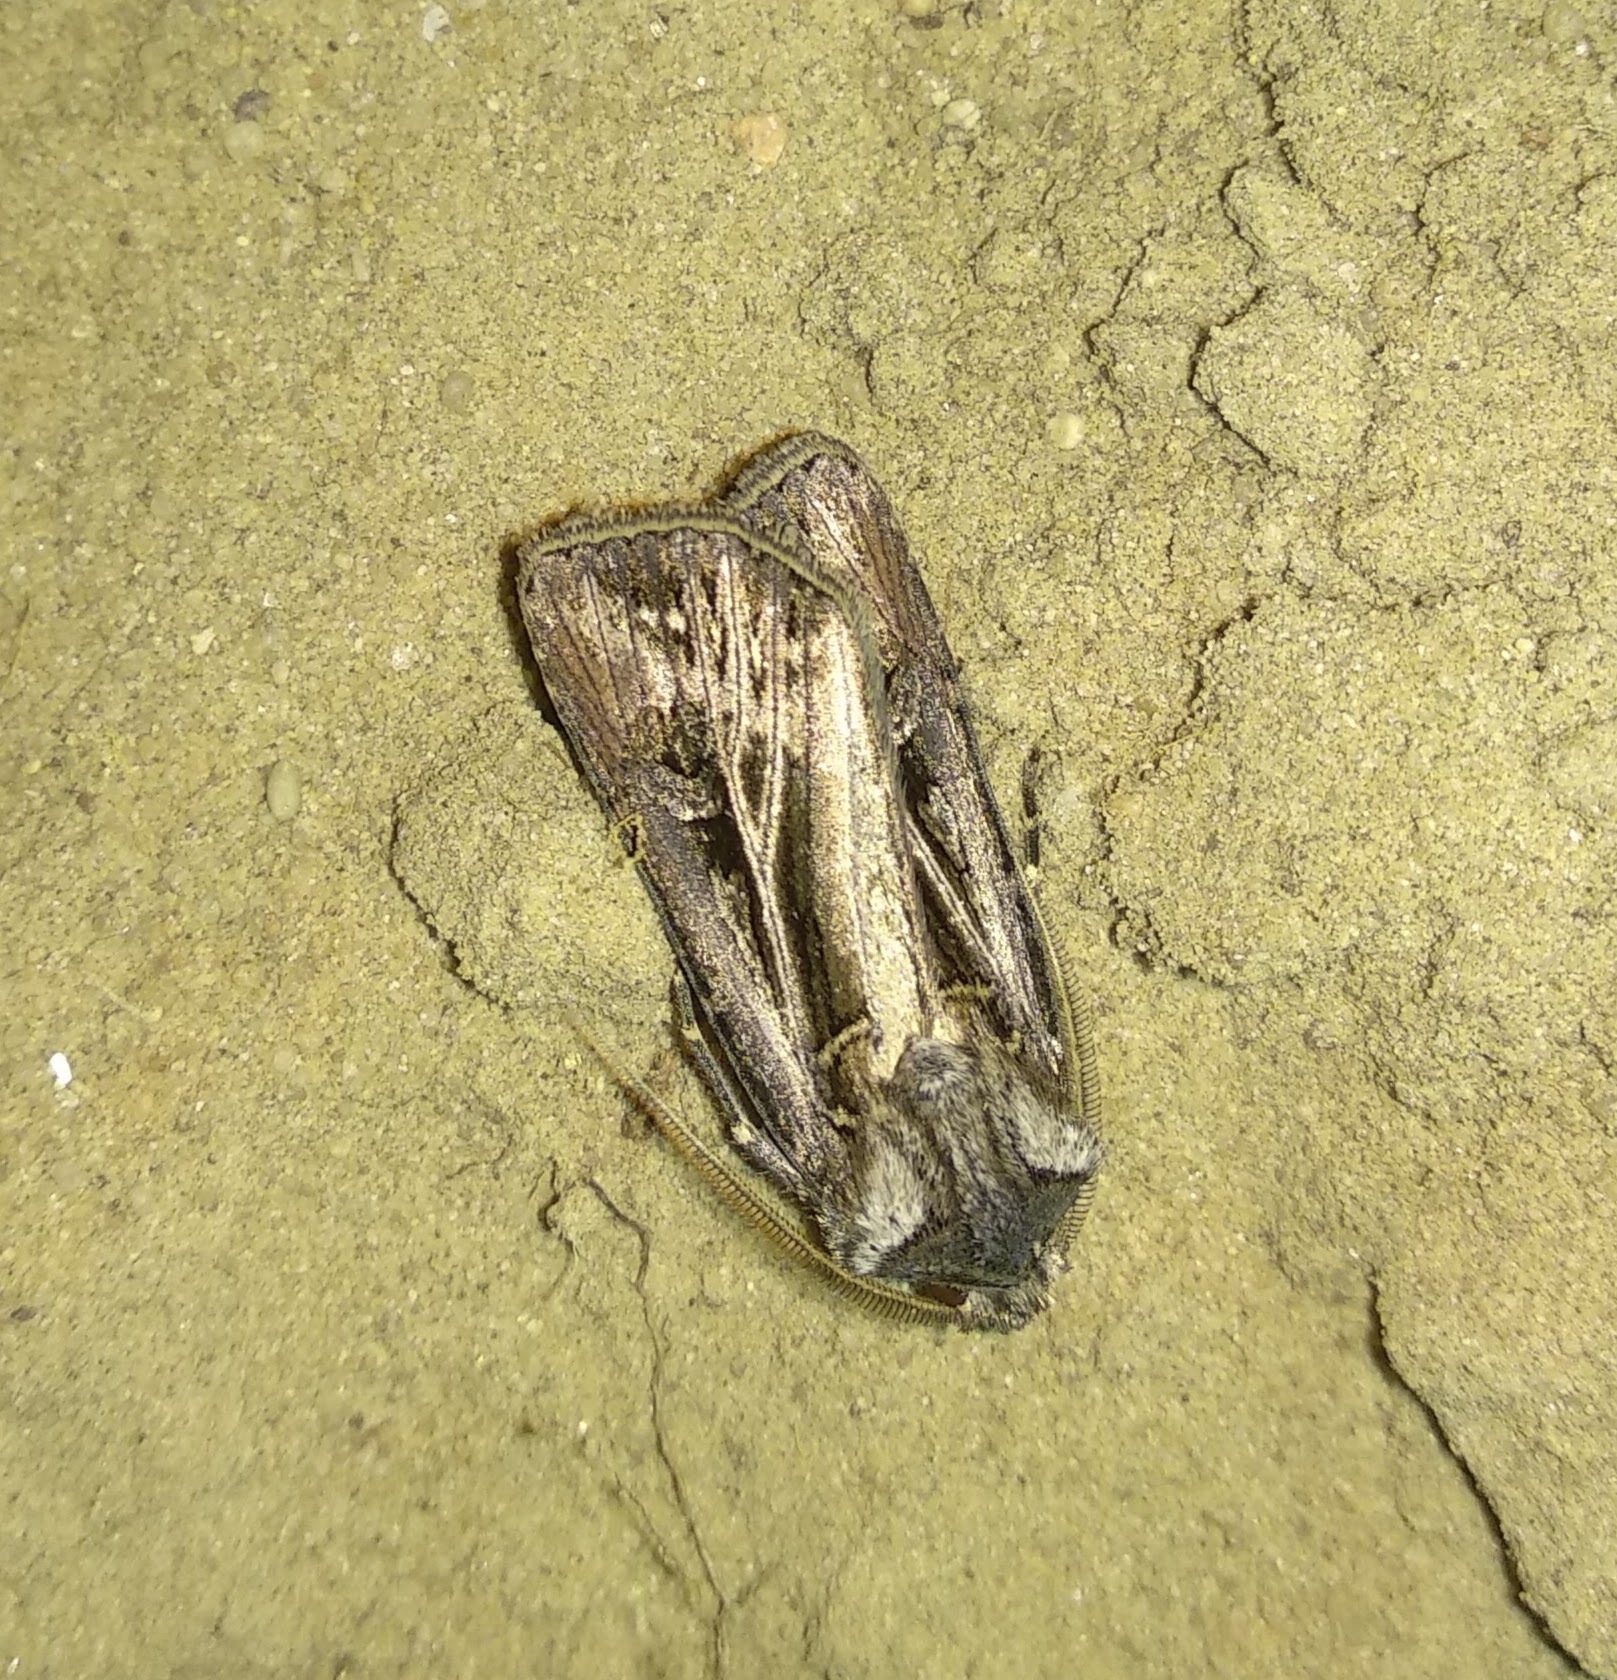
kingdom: Animalia
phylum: Arthropoda
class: Insecta
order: Lepidoptera
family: Noctuidae
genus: Agrotis
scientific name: Agrotis trifurca
